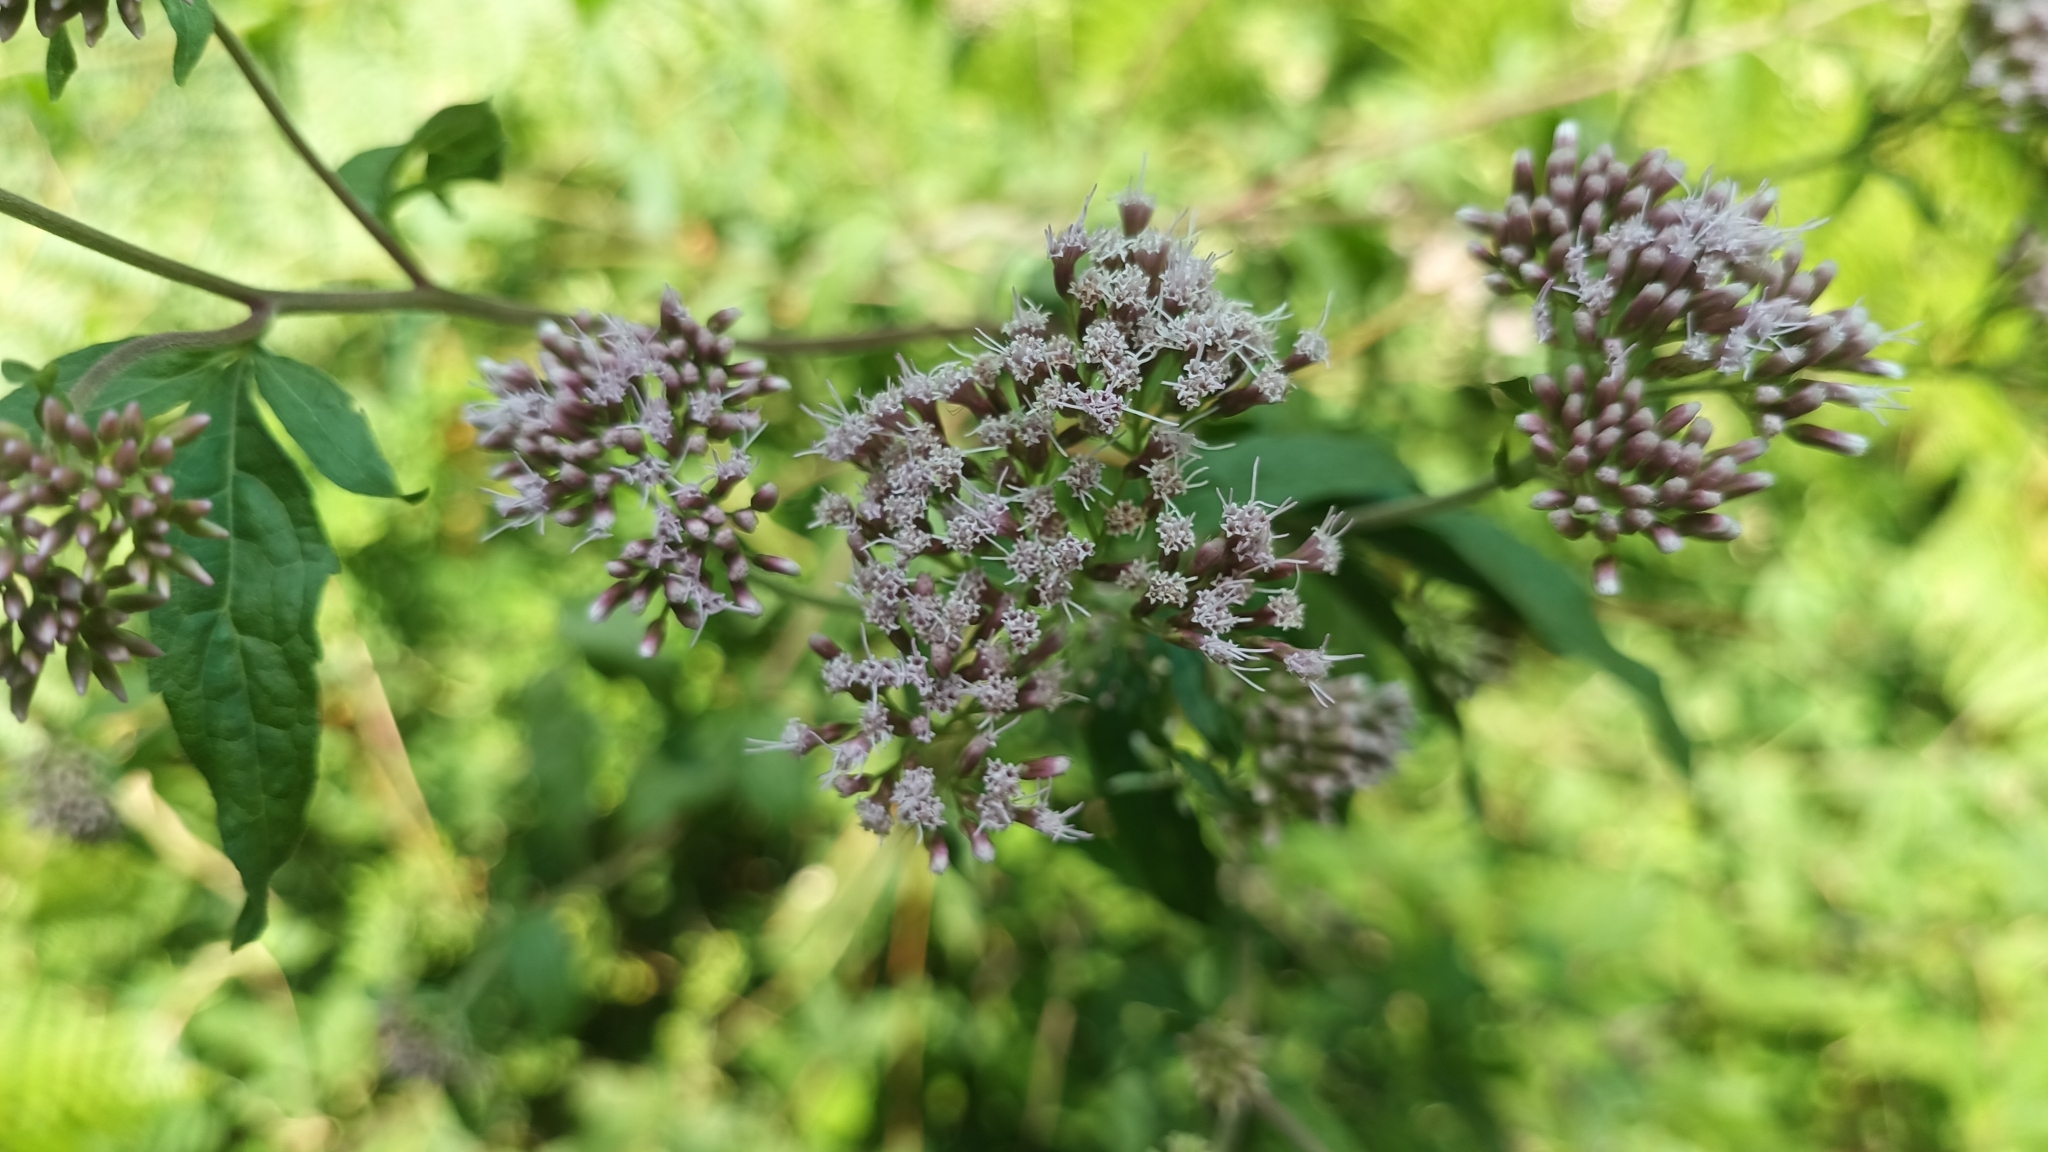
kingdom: Plantae
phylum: Tracheophyta
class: Magnoliopsida
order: Asterales
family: Asteraceae
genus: Eupatorium
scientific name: Eupatorium cannabinum
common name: Hemp-agrimony
